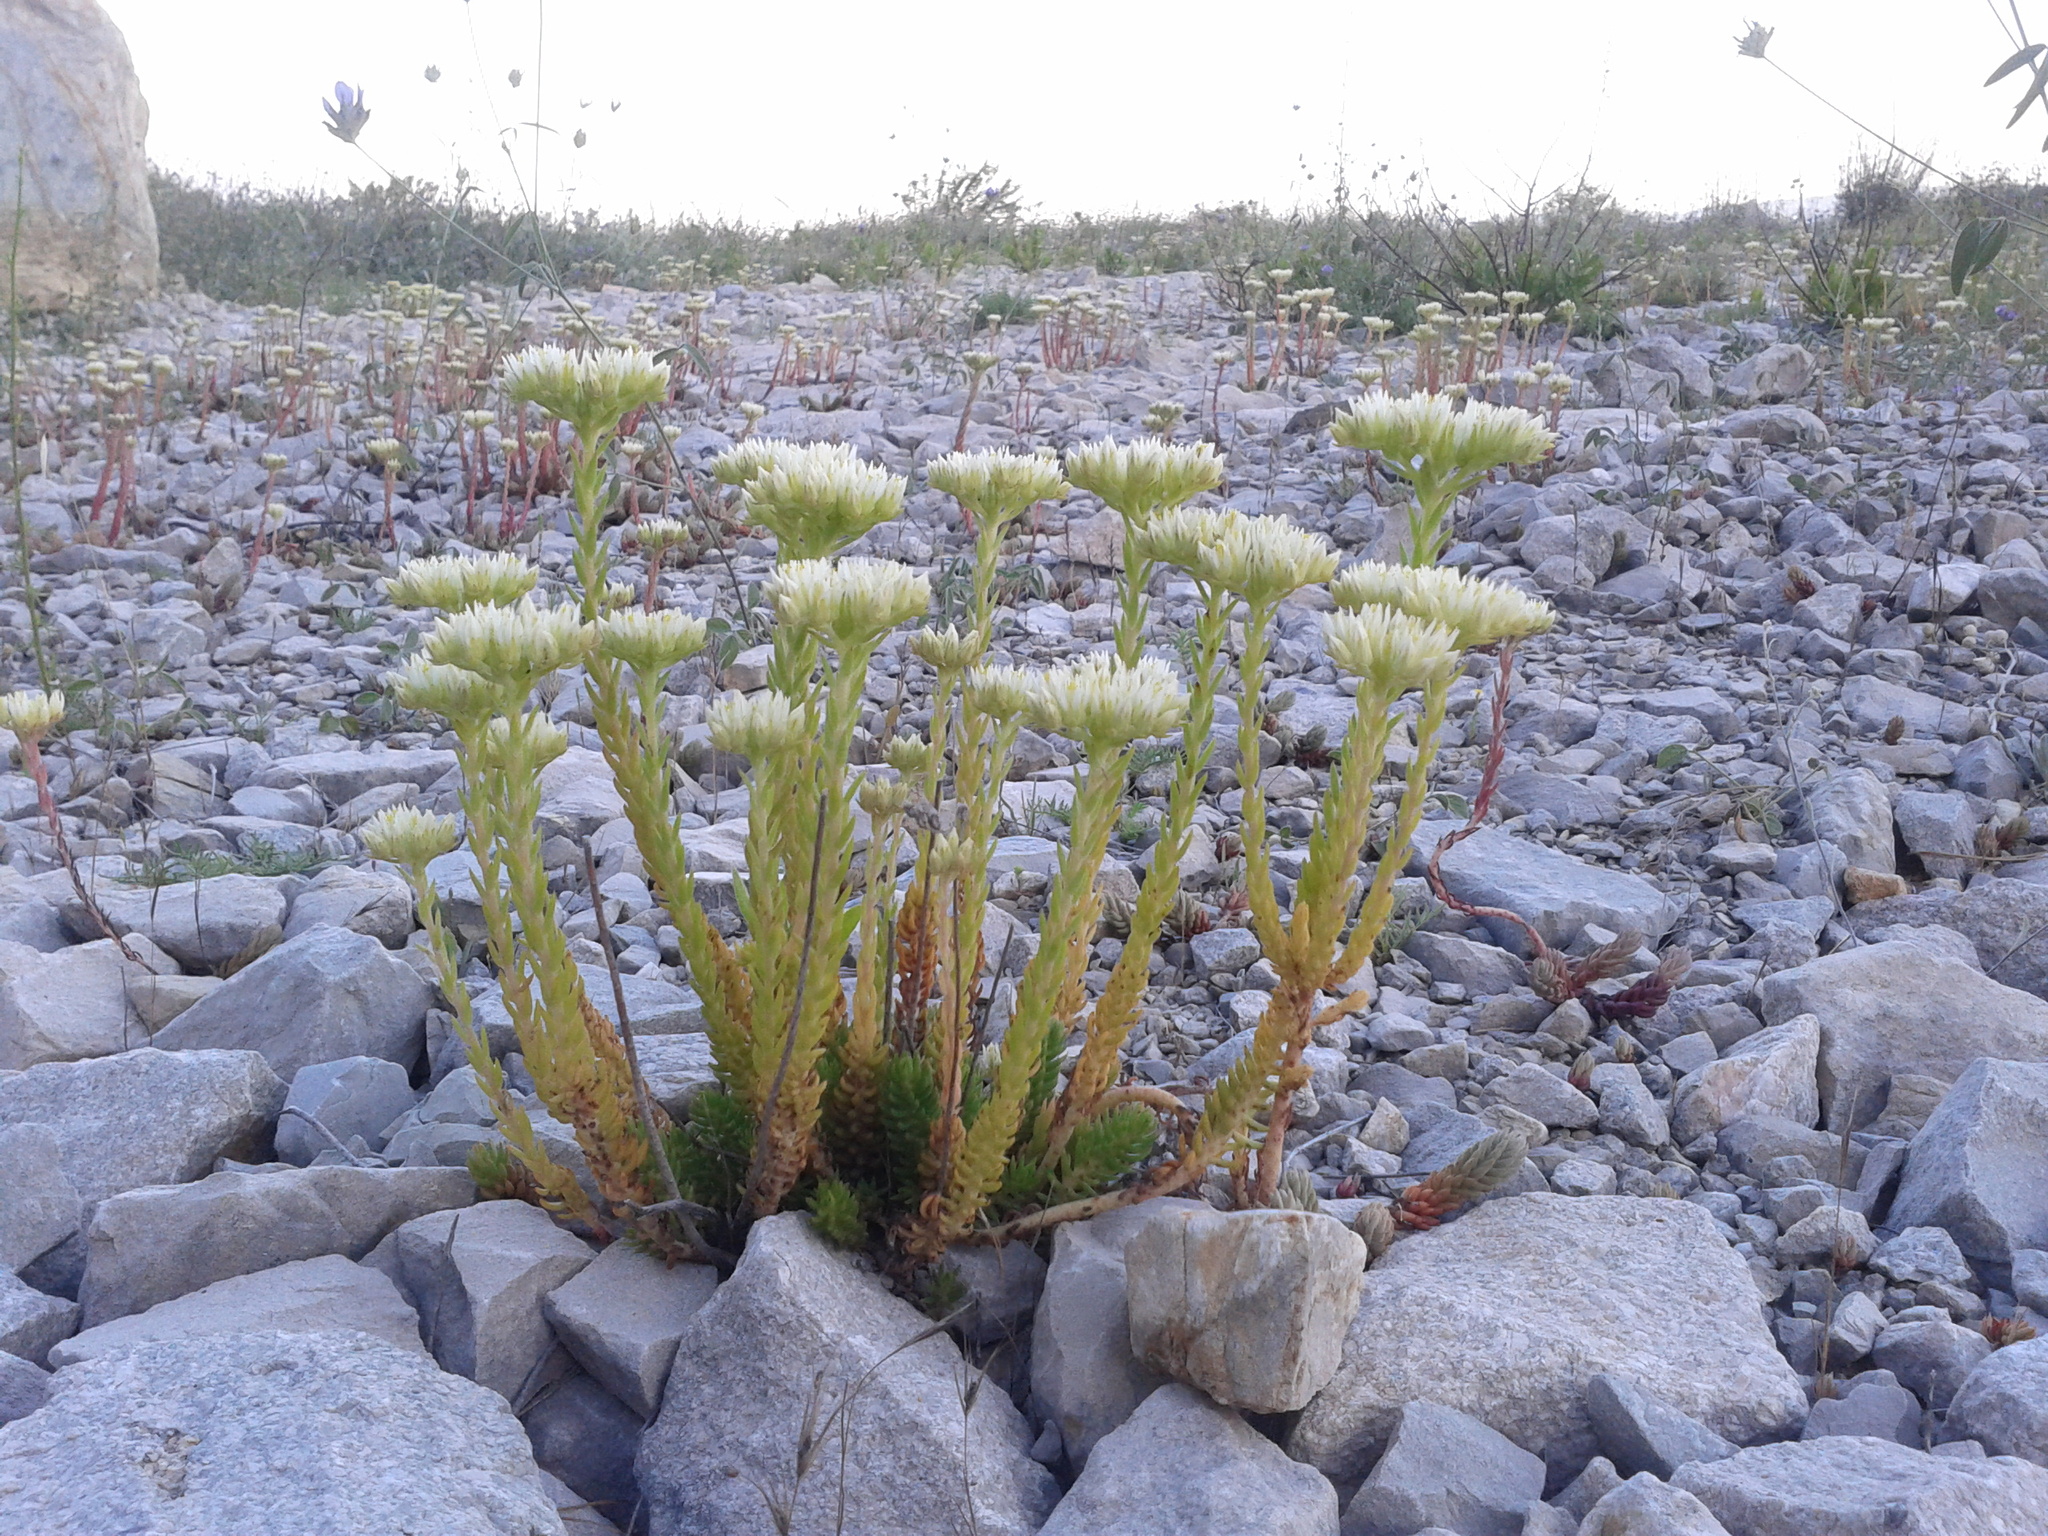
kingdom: Plantae
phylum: Tracheophyta
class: Magnoliopsida
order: Saxifragales
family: Crassulaceae
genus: Petrosedum
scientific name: Petrosedum ochroleucum
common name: European stonecrop
